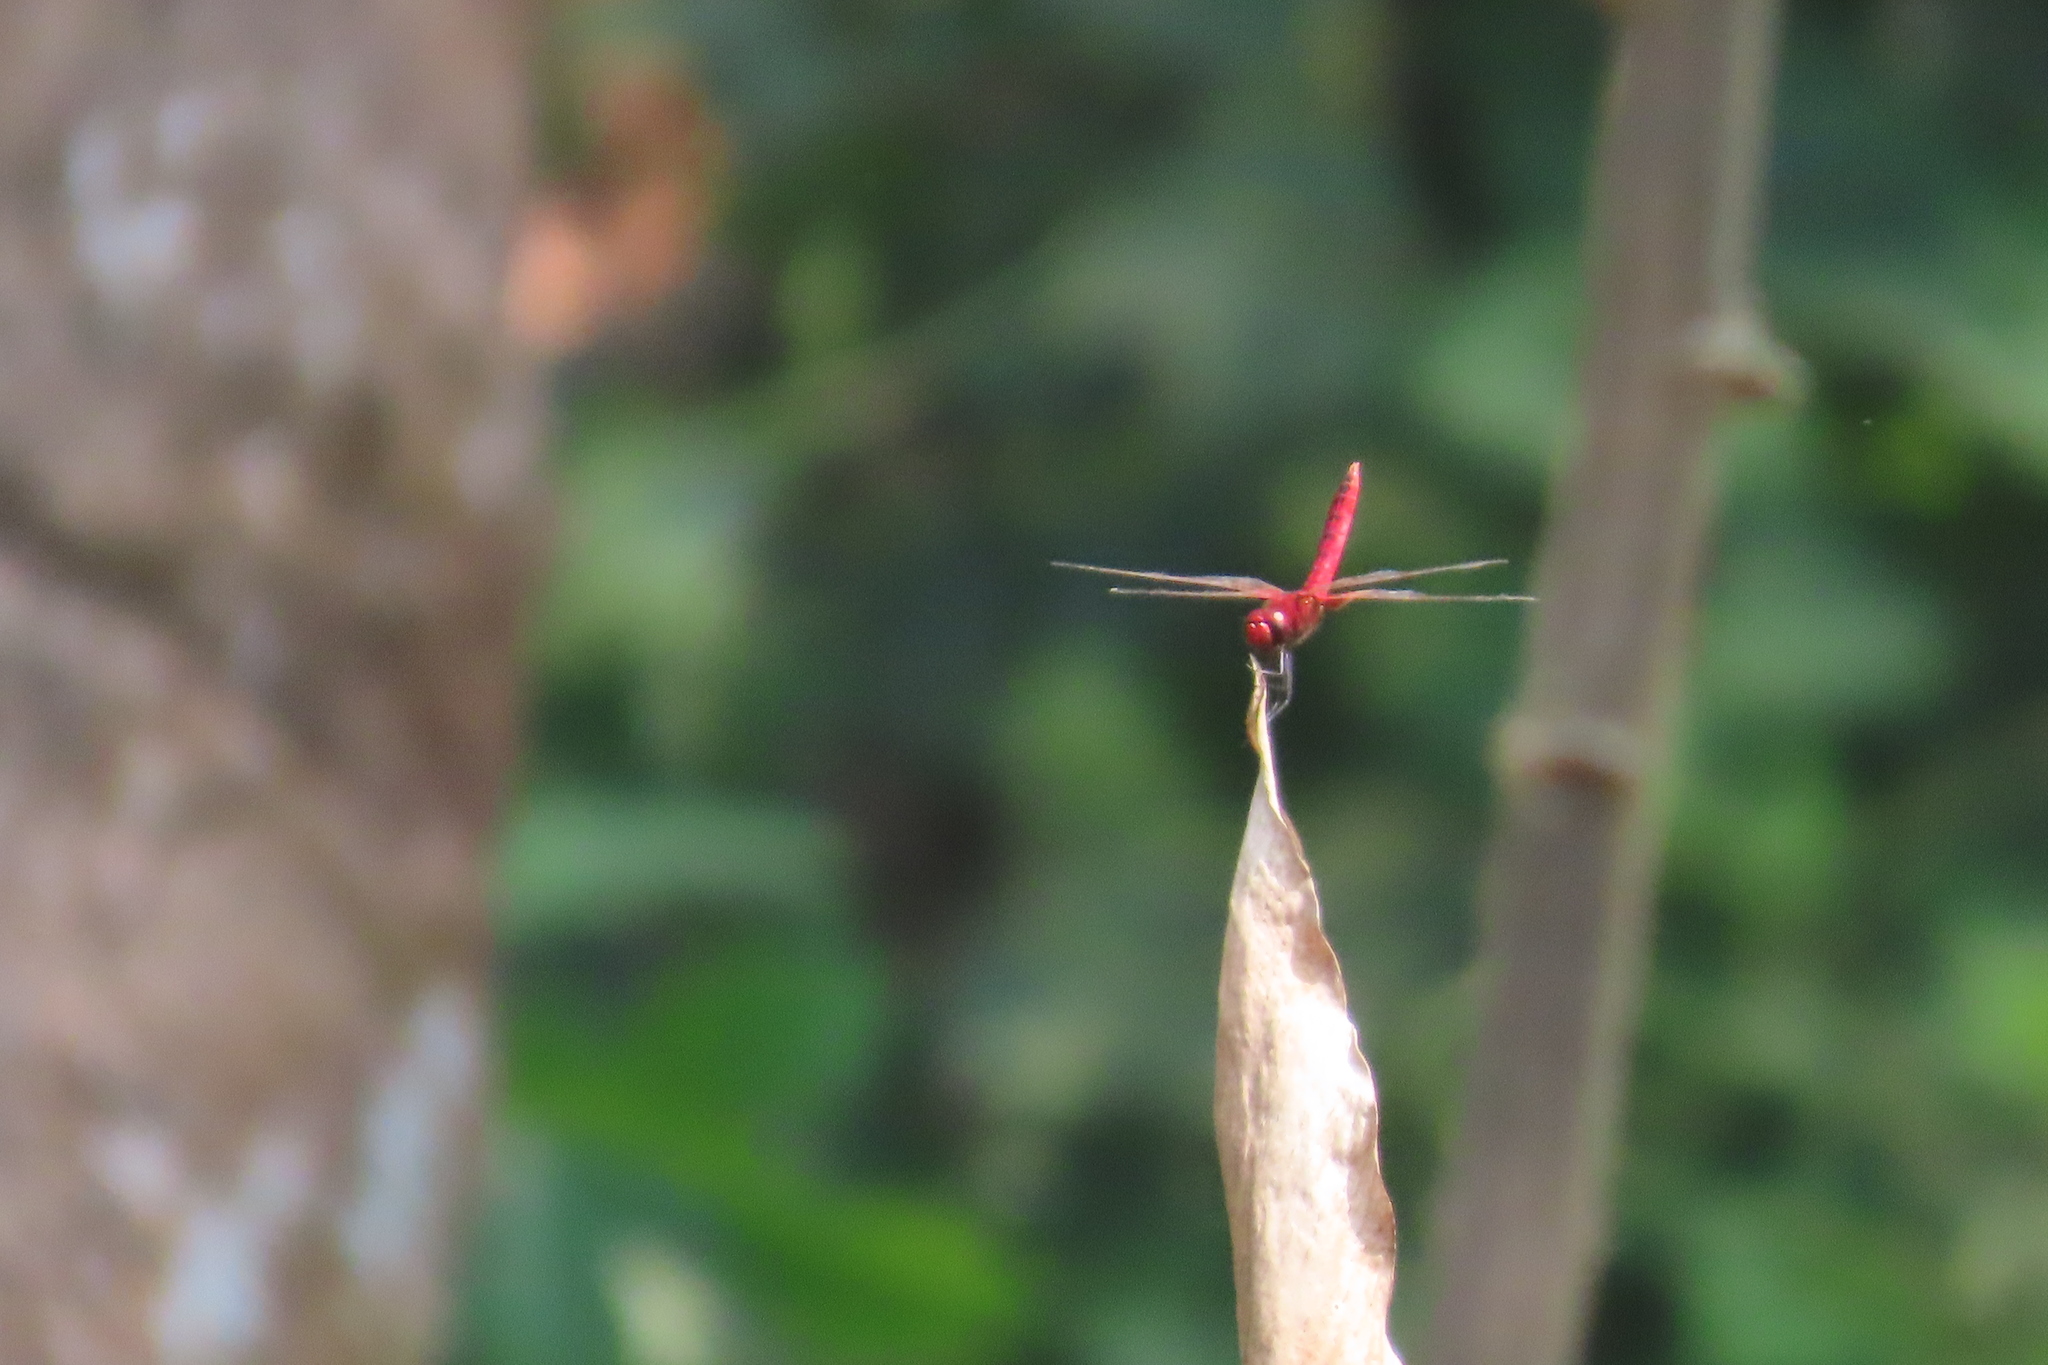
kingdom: Animalia
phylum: Arthropoda
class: Insecta
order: Odonata
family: Libellulidae
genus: Urothemis
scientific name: Urothemis signata
